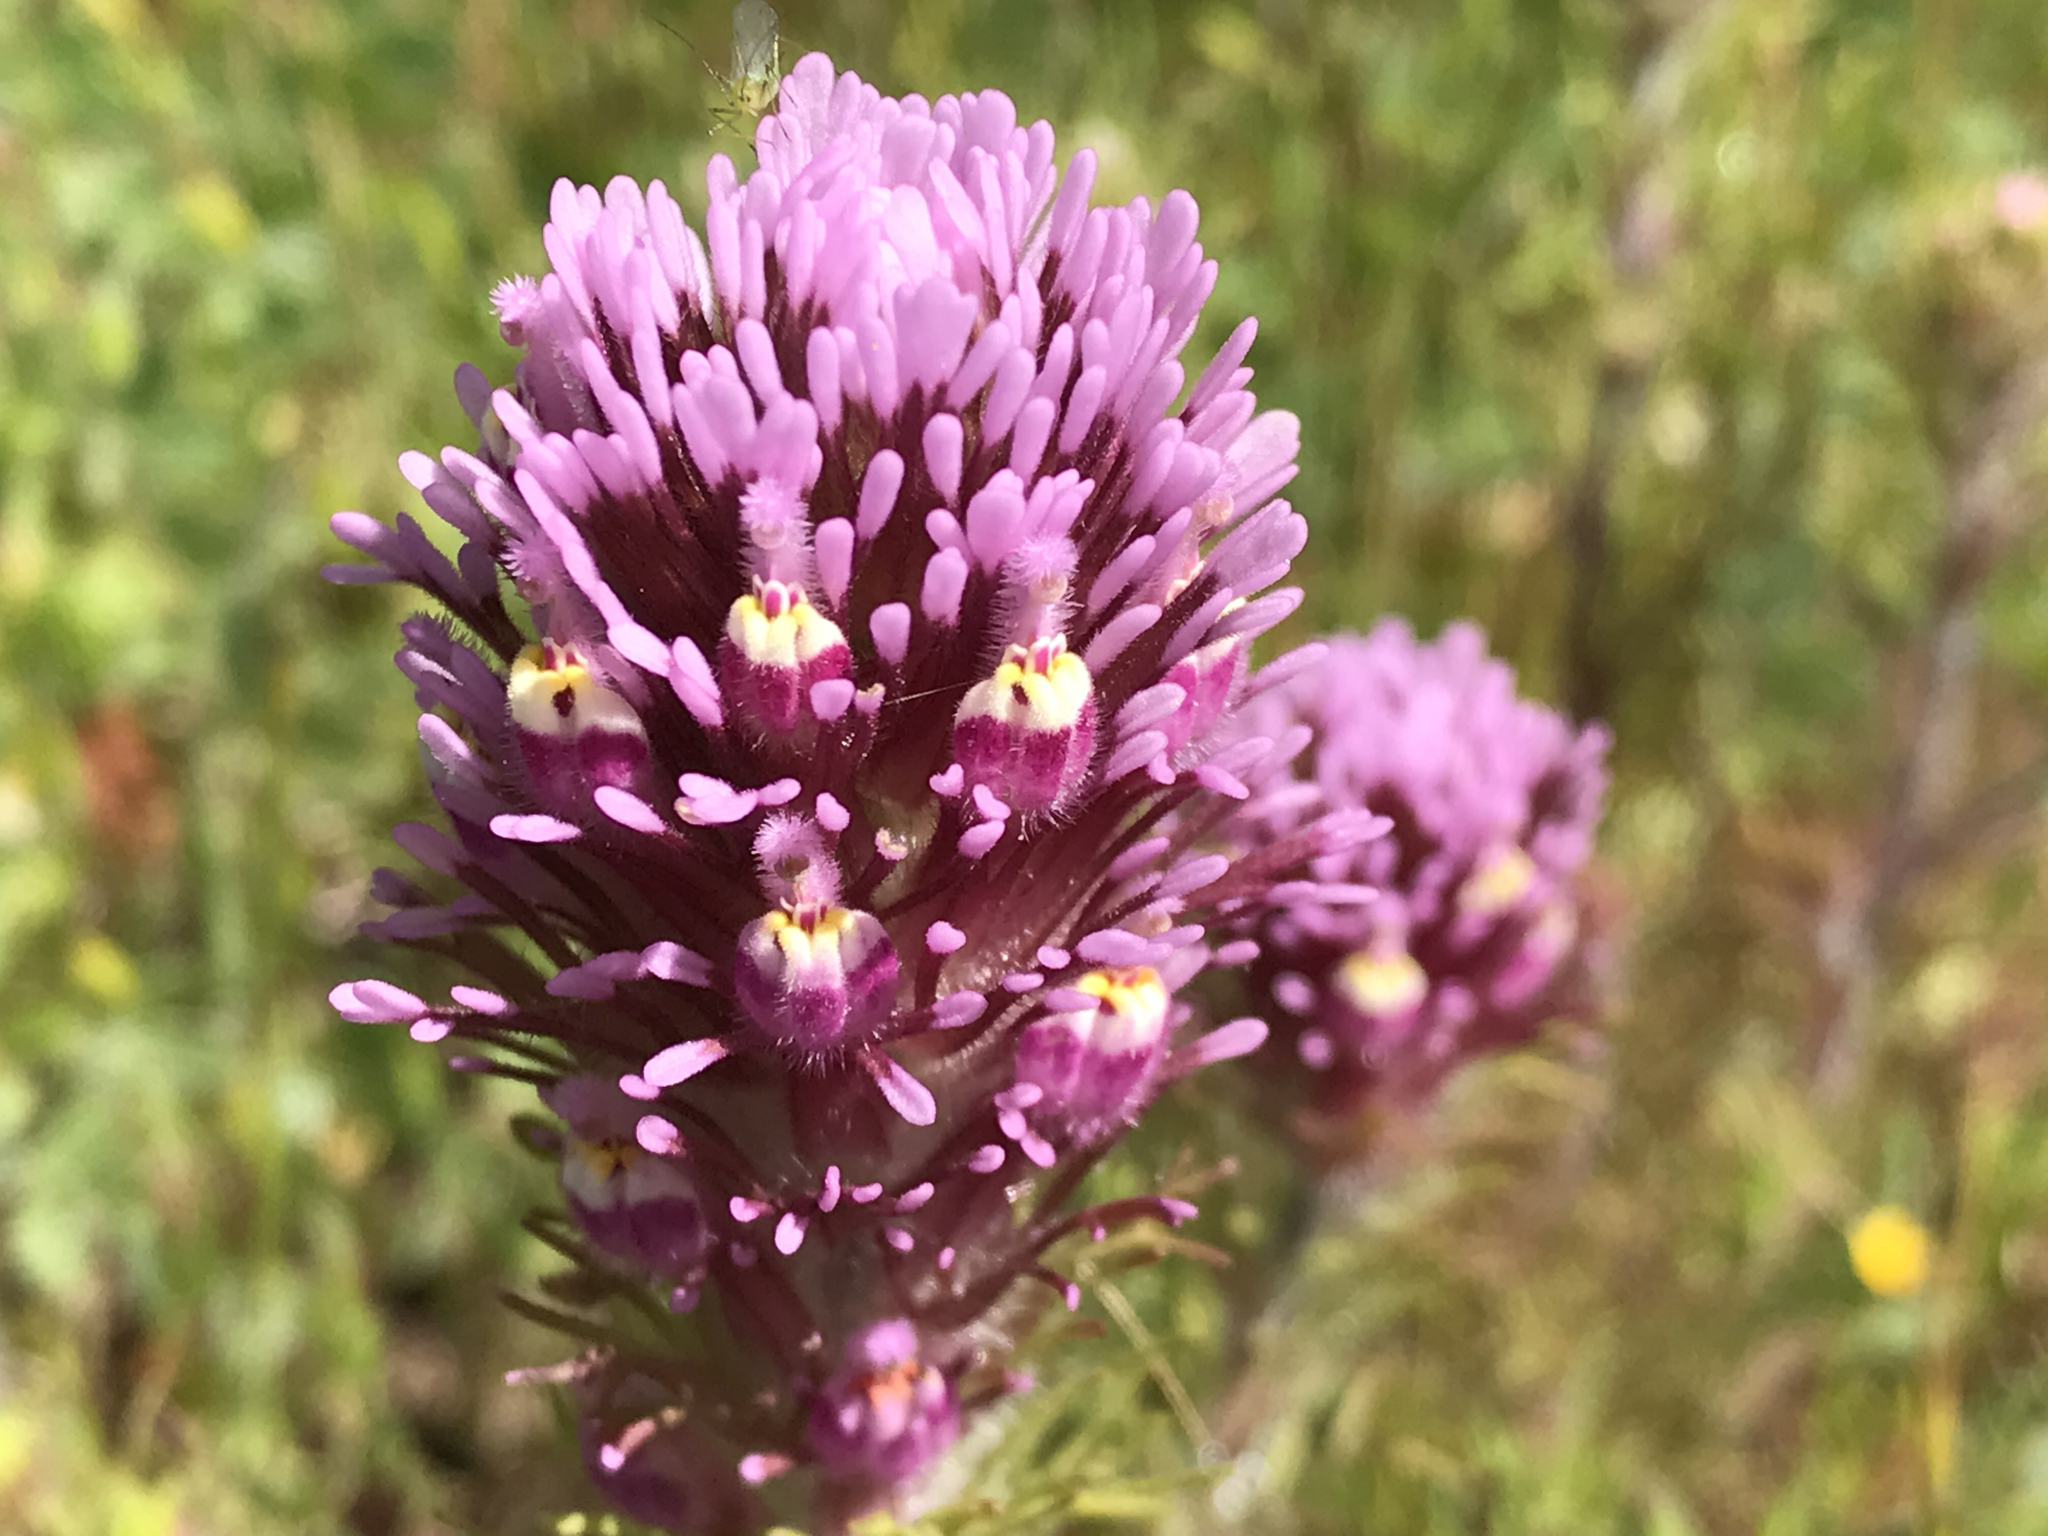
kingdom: Plantae
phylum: Tracheophyta
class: Magnoliopsida
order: Lamiales
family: Orobanchaceae
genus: Castilleja
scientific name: Castilleja exserta
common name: Purple owl-clover
